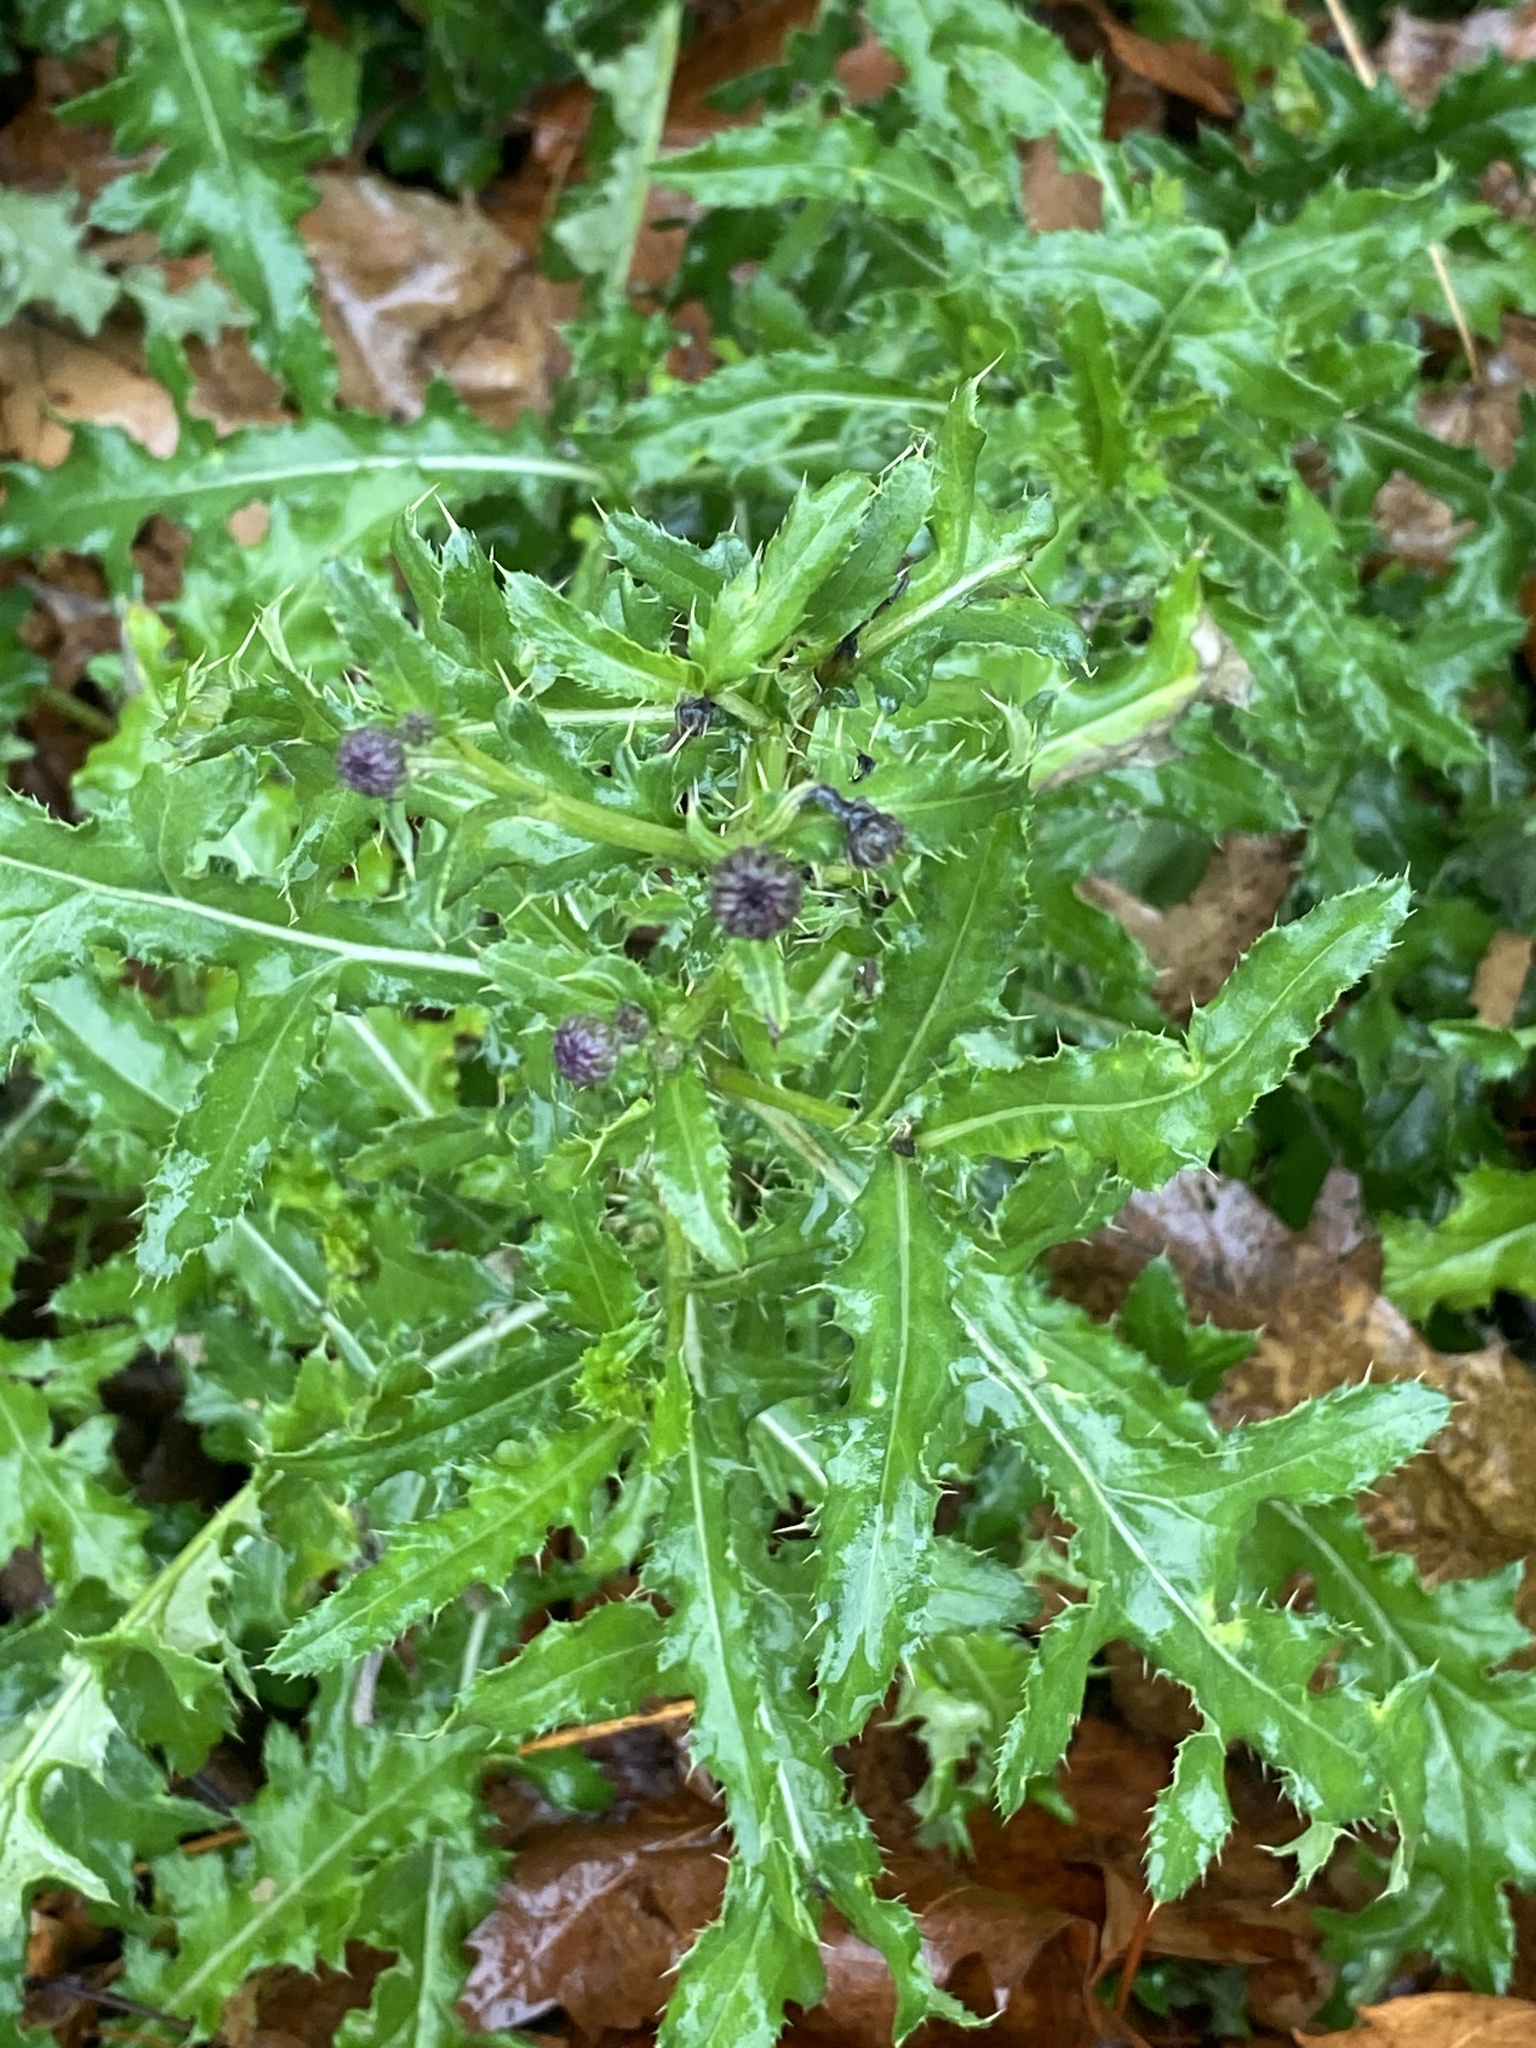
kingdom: Plantae
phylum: Tracheophyta
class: Magnoliopsida
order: Asterales
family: Asteraceae
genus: Cirsium
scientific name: Cirsium arvense
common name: Creeping thistle
